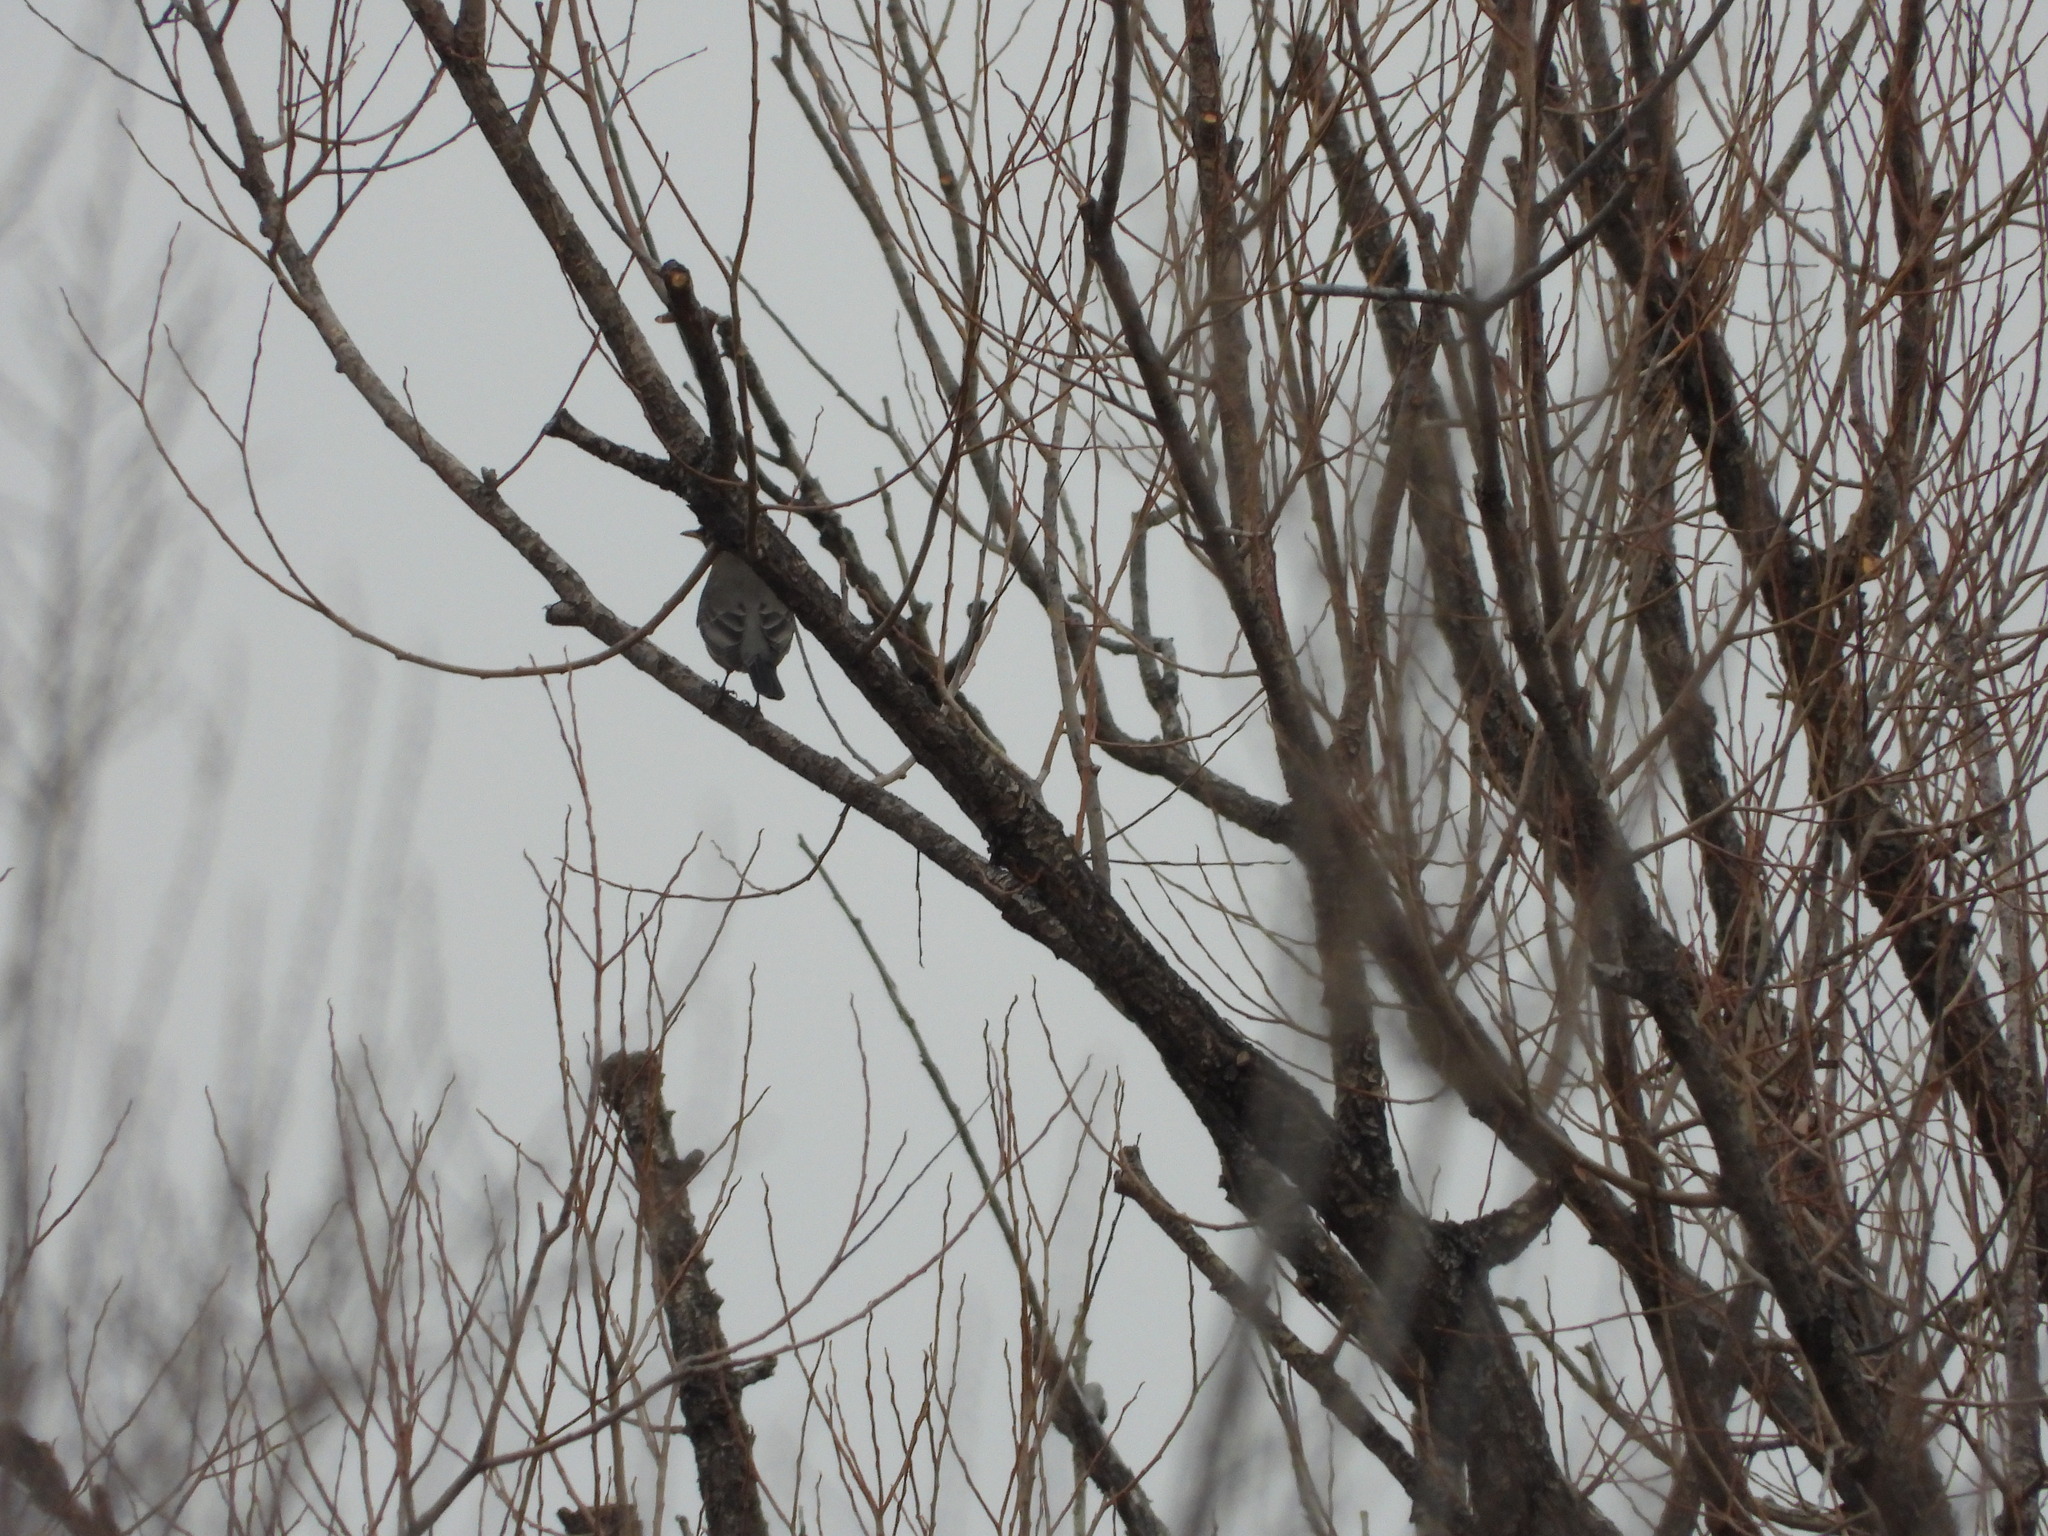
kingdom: Animalia
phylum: Chordata
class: Aves
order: Passeriformes
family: Turdidae
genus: Turdus
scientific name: Turdus migratorius
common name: American robin
